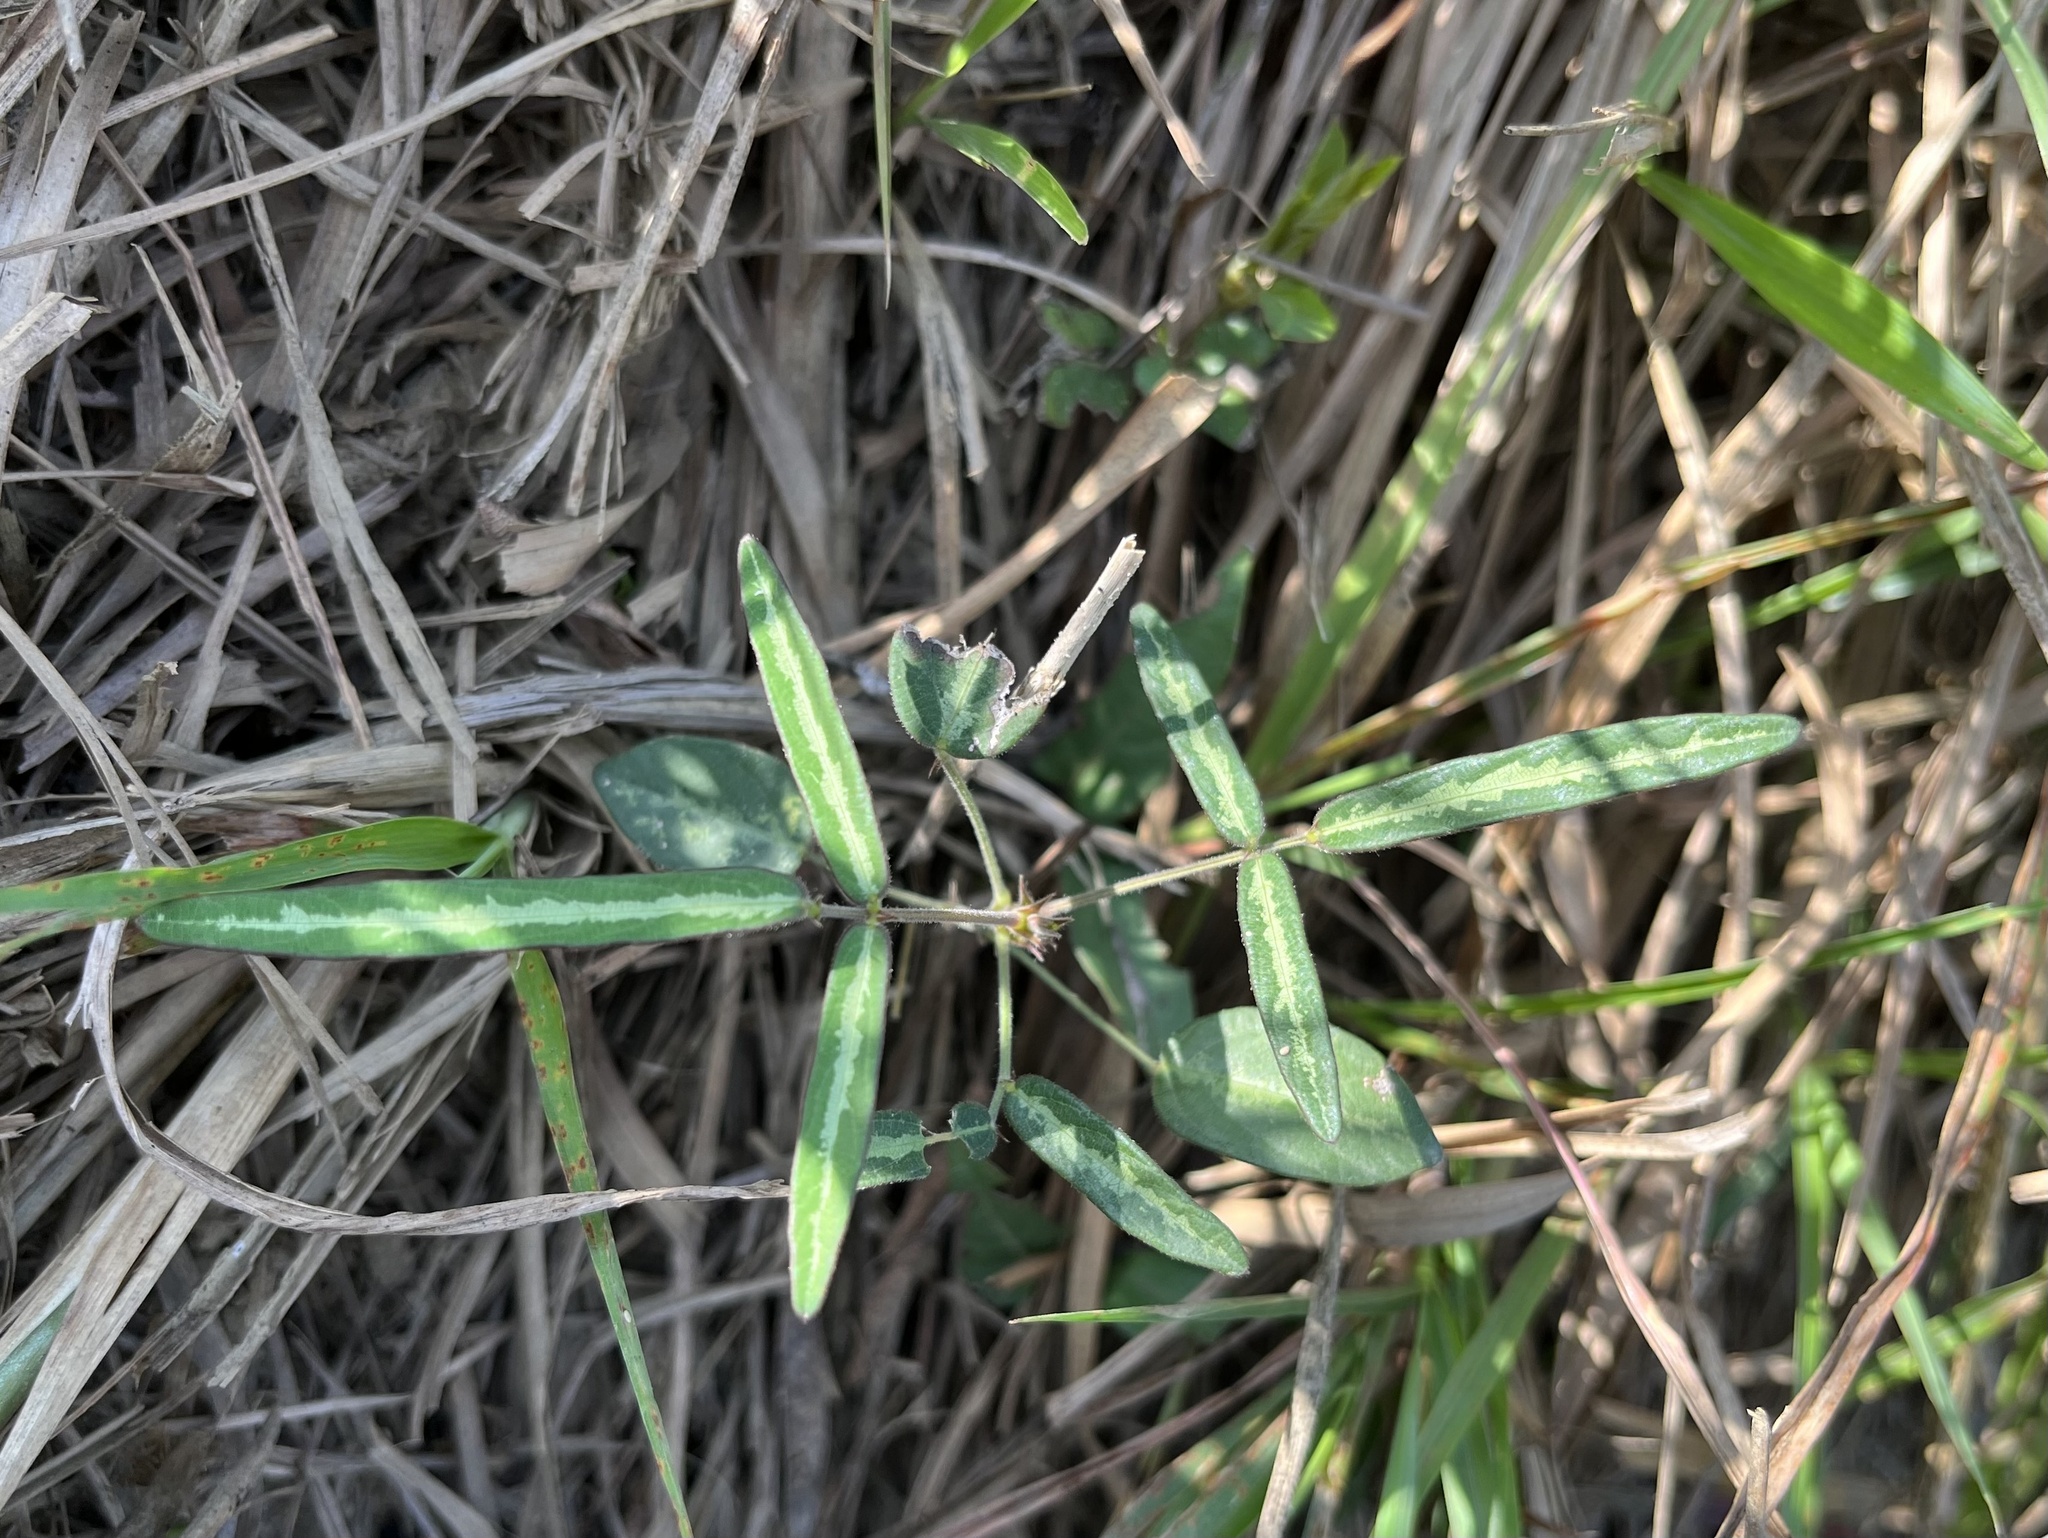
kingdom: Plantae
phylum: Tracheophyta
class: Magnoliopsida
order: Fabales
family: Fabaceae
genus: Uraria
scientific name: Uraria picta
